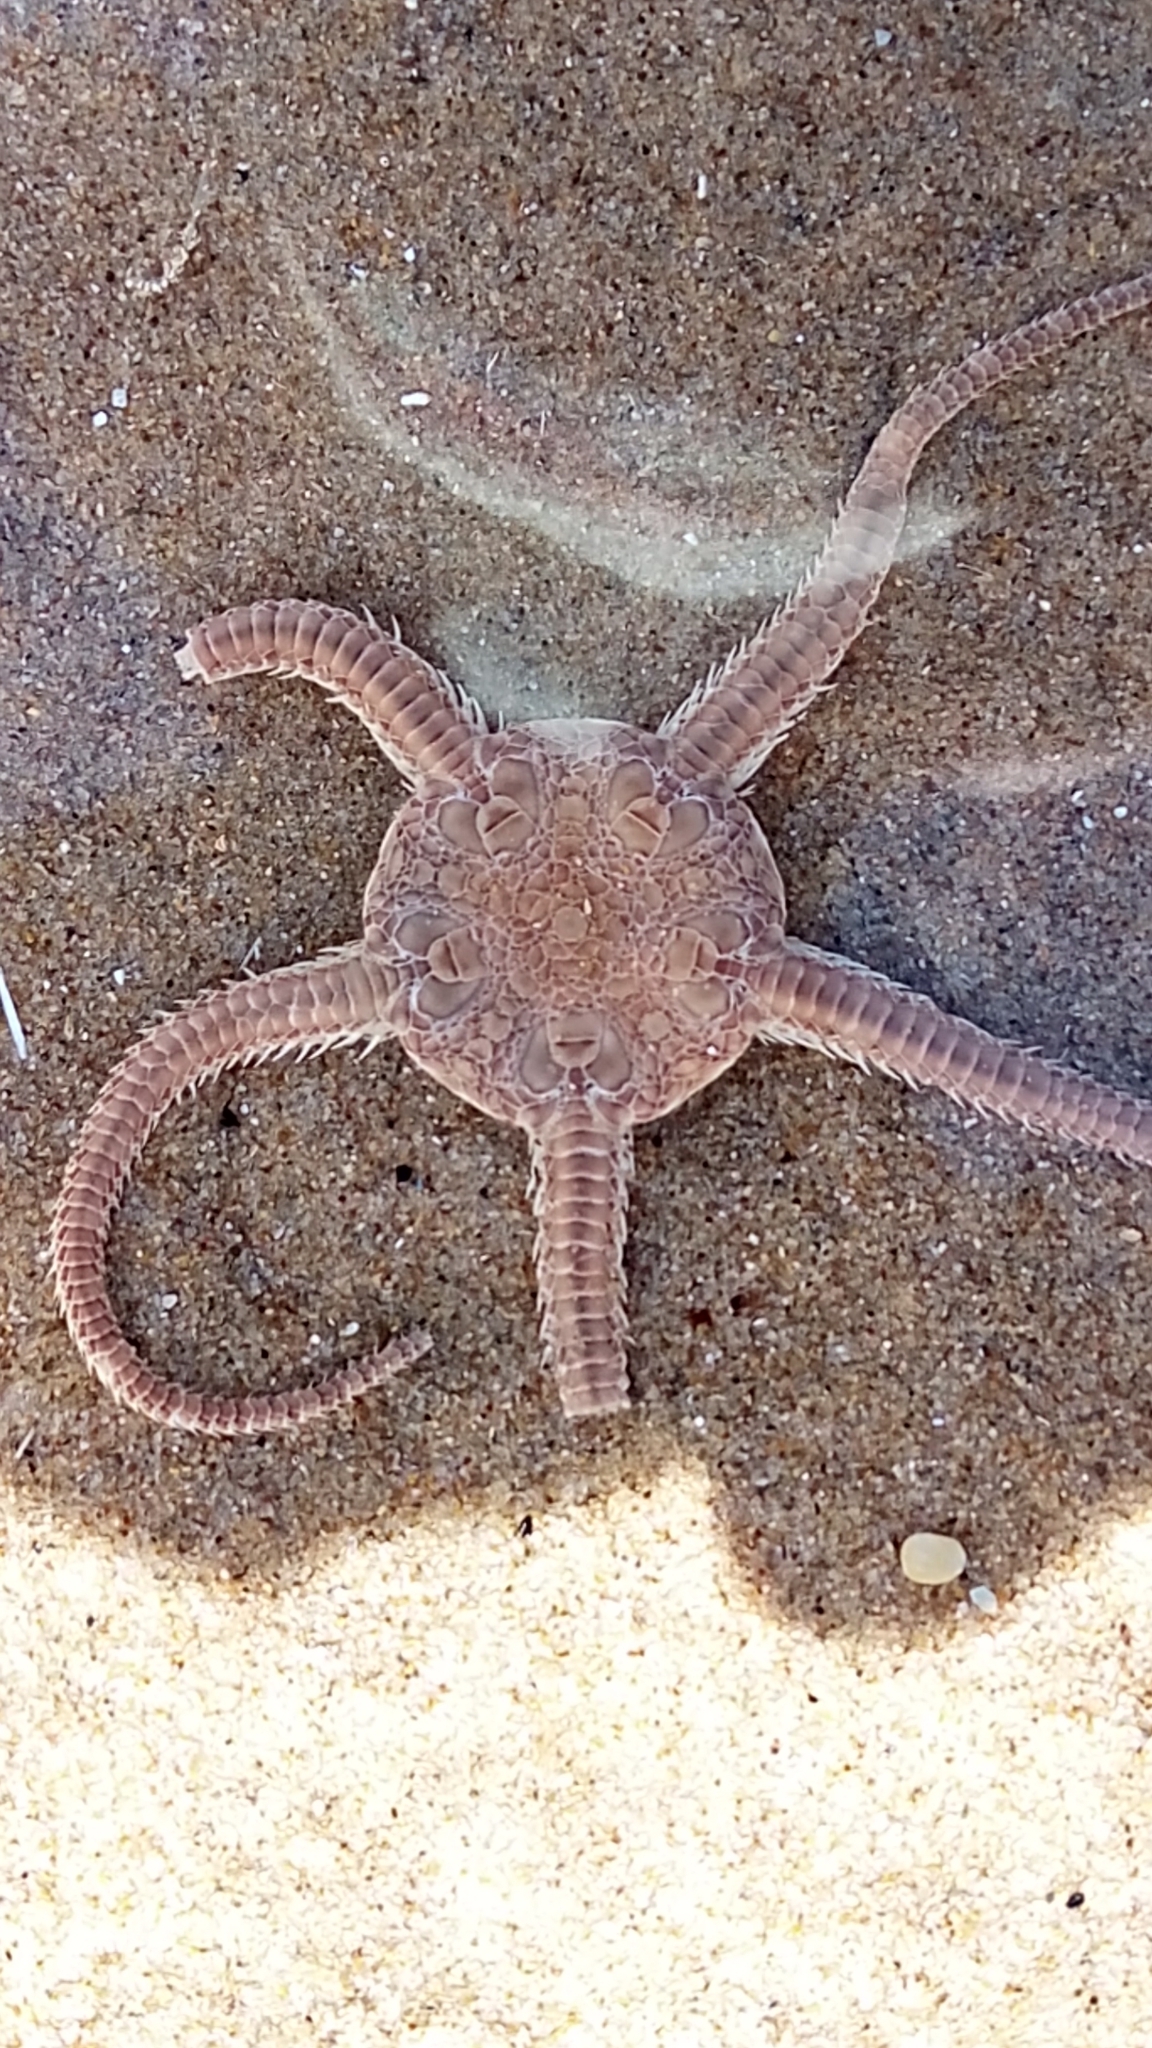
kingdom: Animalia
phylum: Echinodermata
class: Ophiuroidea
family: Ophiuridae
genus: Ophiura
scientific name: Ophiura ophiura
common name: Serpent star
